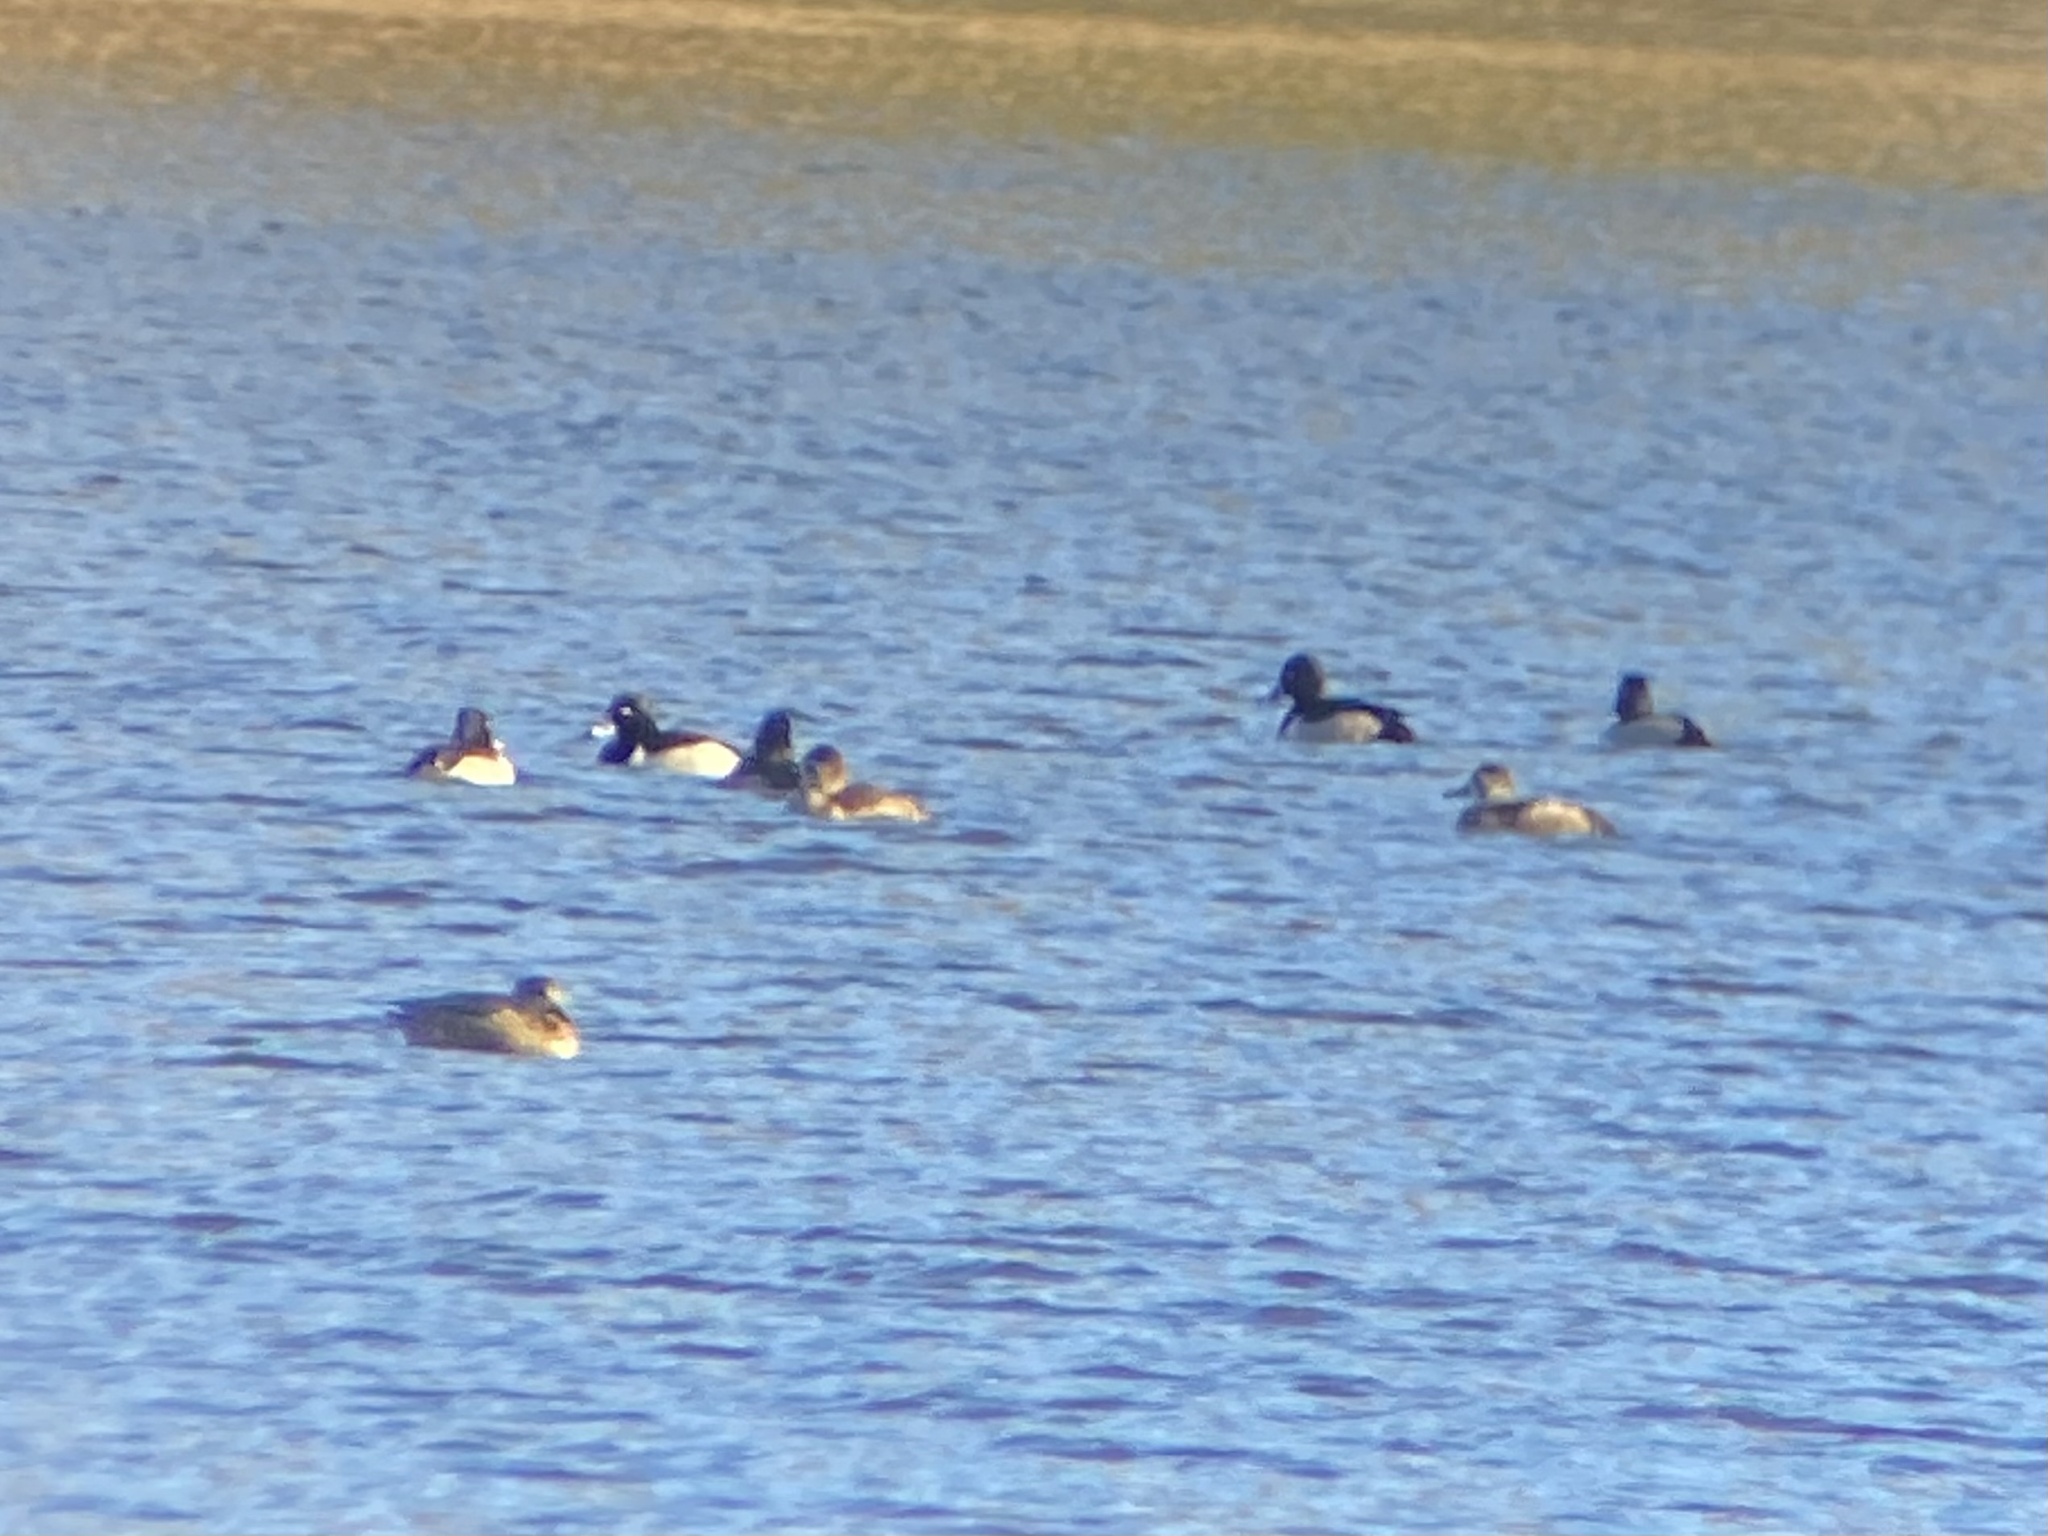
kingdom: Animalia
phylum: Chordata
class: Aves
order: Anseriformes
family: Anatidae
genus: Aythya
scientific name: Aythya collaris
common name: Ring-necked duck
